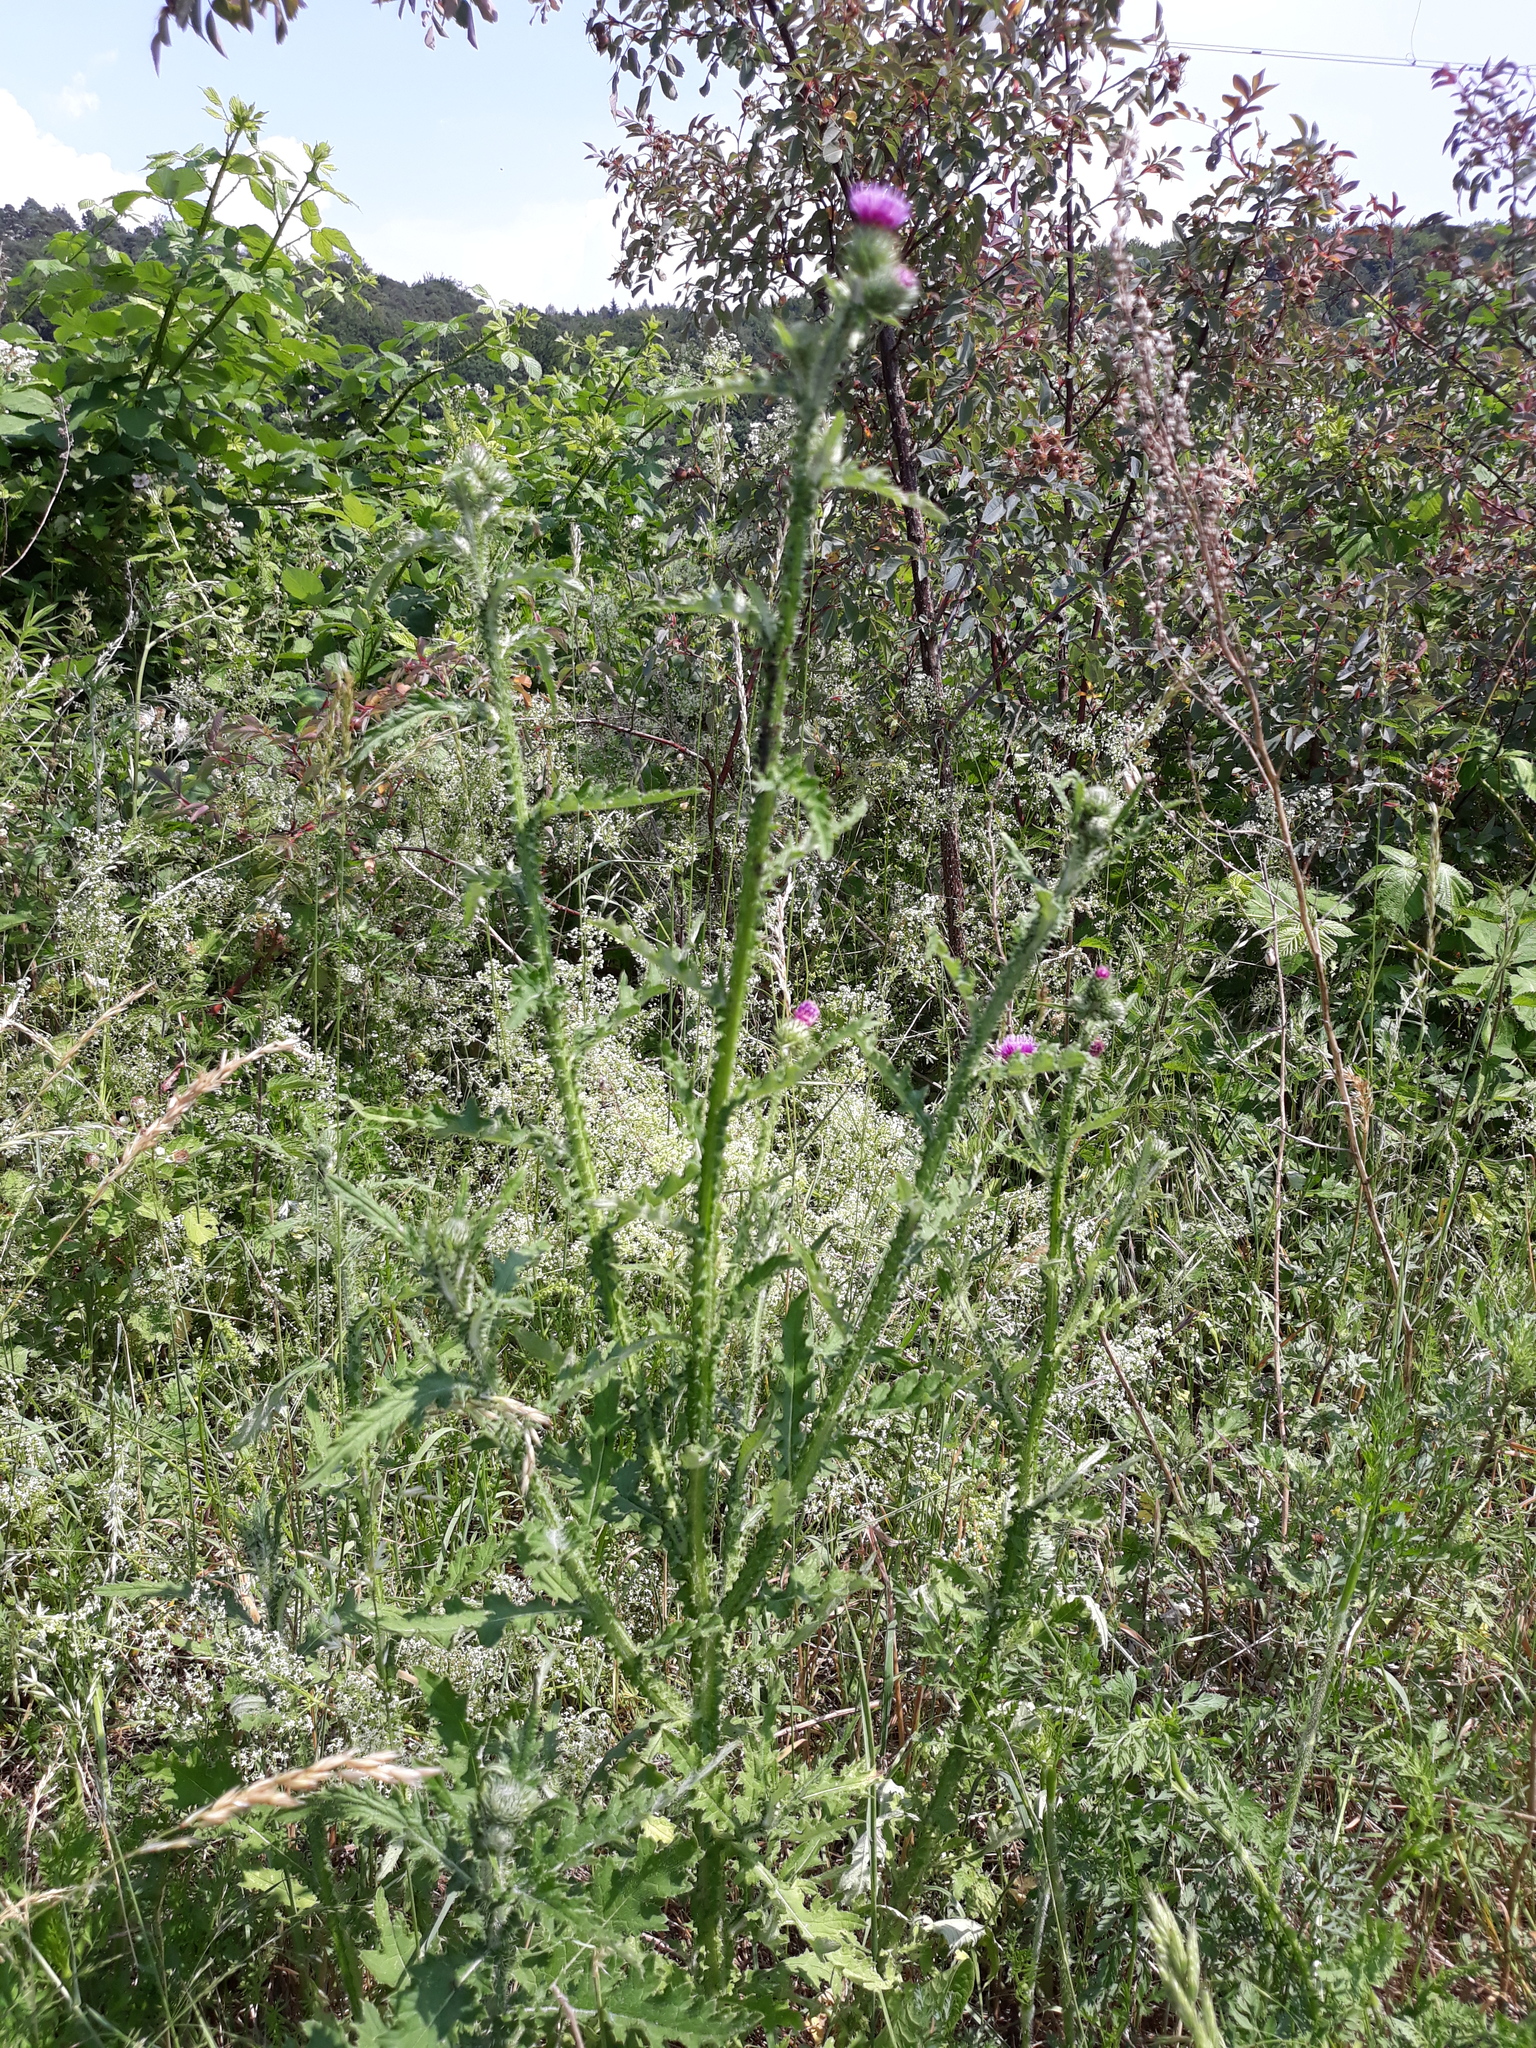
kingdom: Plantae
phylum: Tracheophyta
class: Magnoliopsida
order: Asterales
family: Asteraceae
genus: Carduus
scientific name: Carduus crispus
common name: Welted thistle
